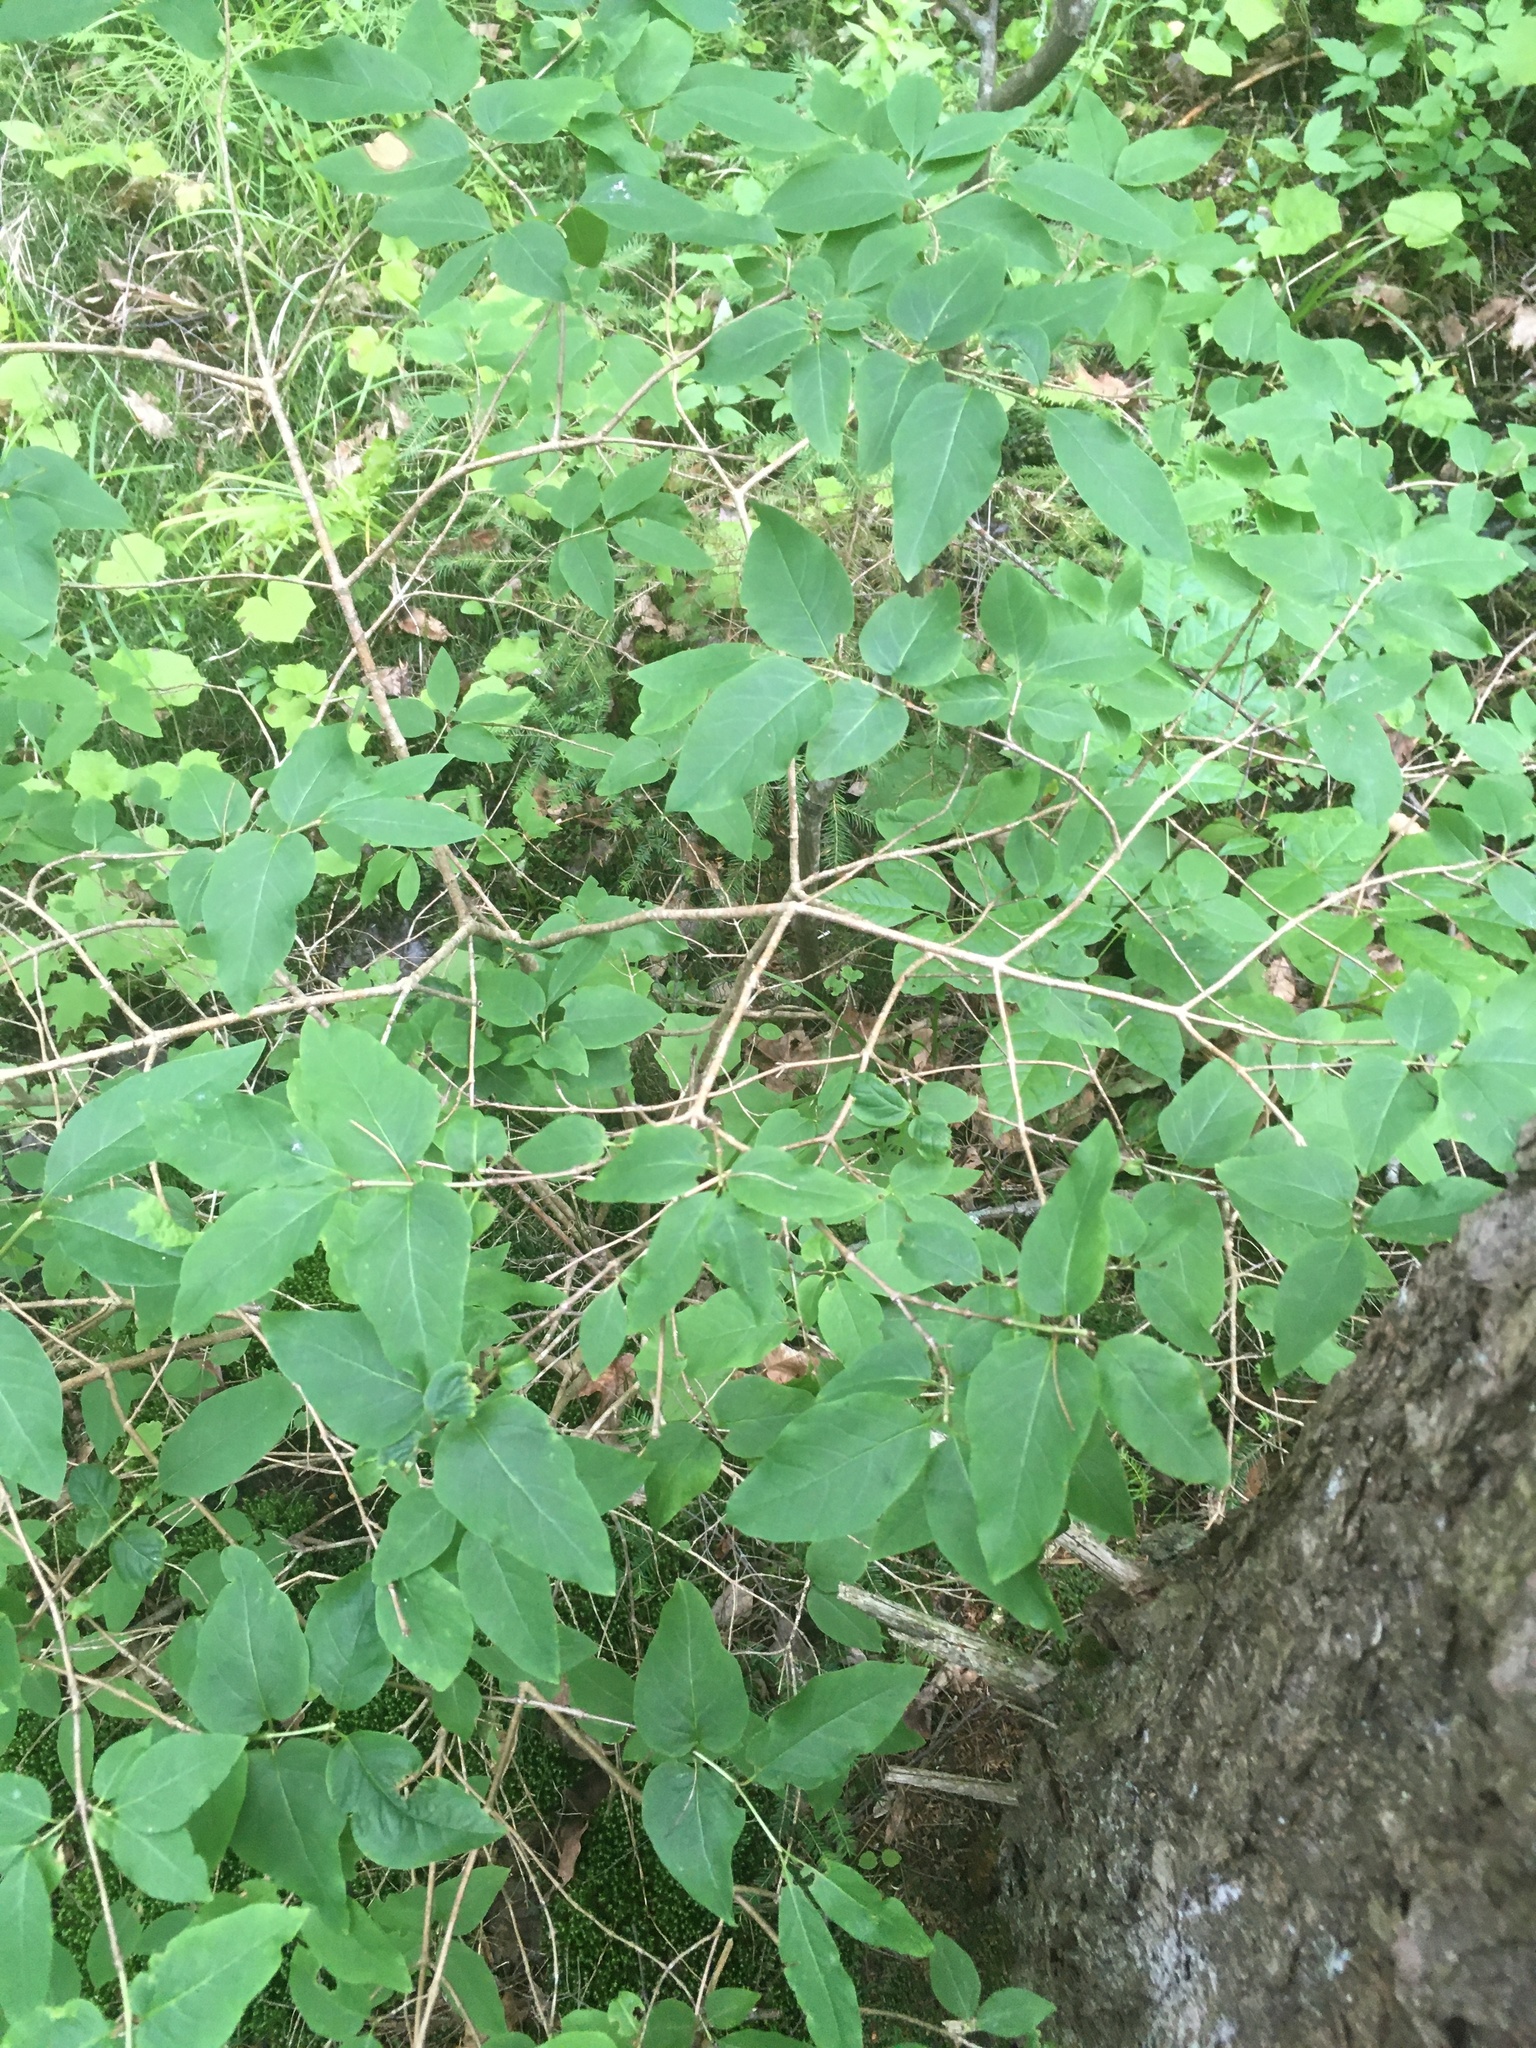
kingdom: Plantae
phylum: Tracheophyta
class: Magnoliopsida
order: Dipsacales
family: Caprifoliaceae
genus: Lonicera
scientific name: Lonicera canadensis
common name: American fly-honeysuckle
